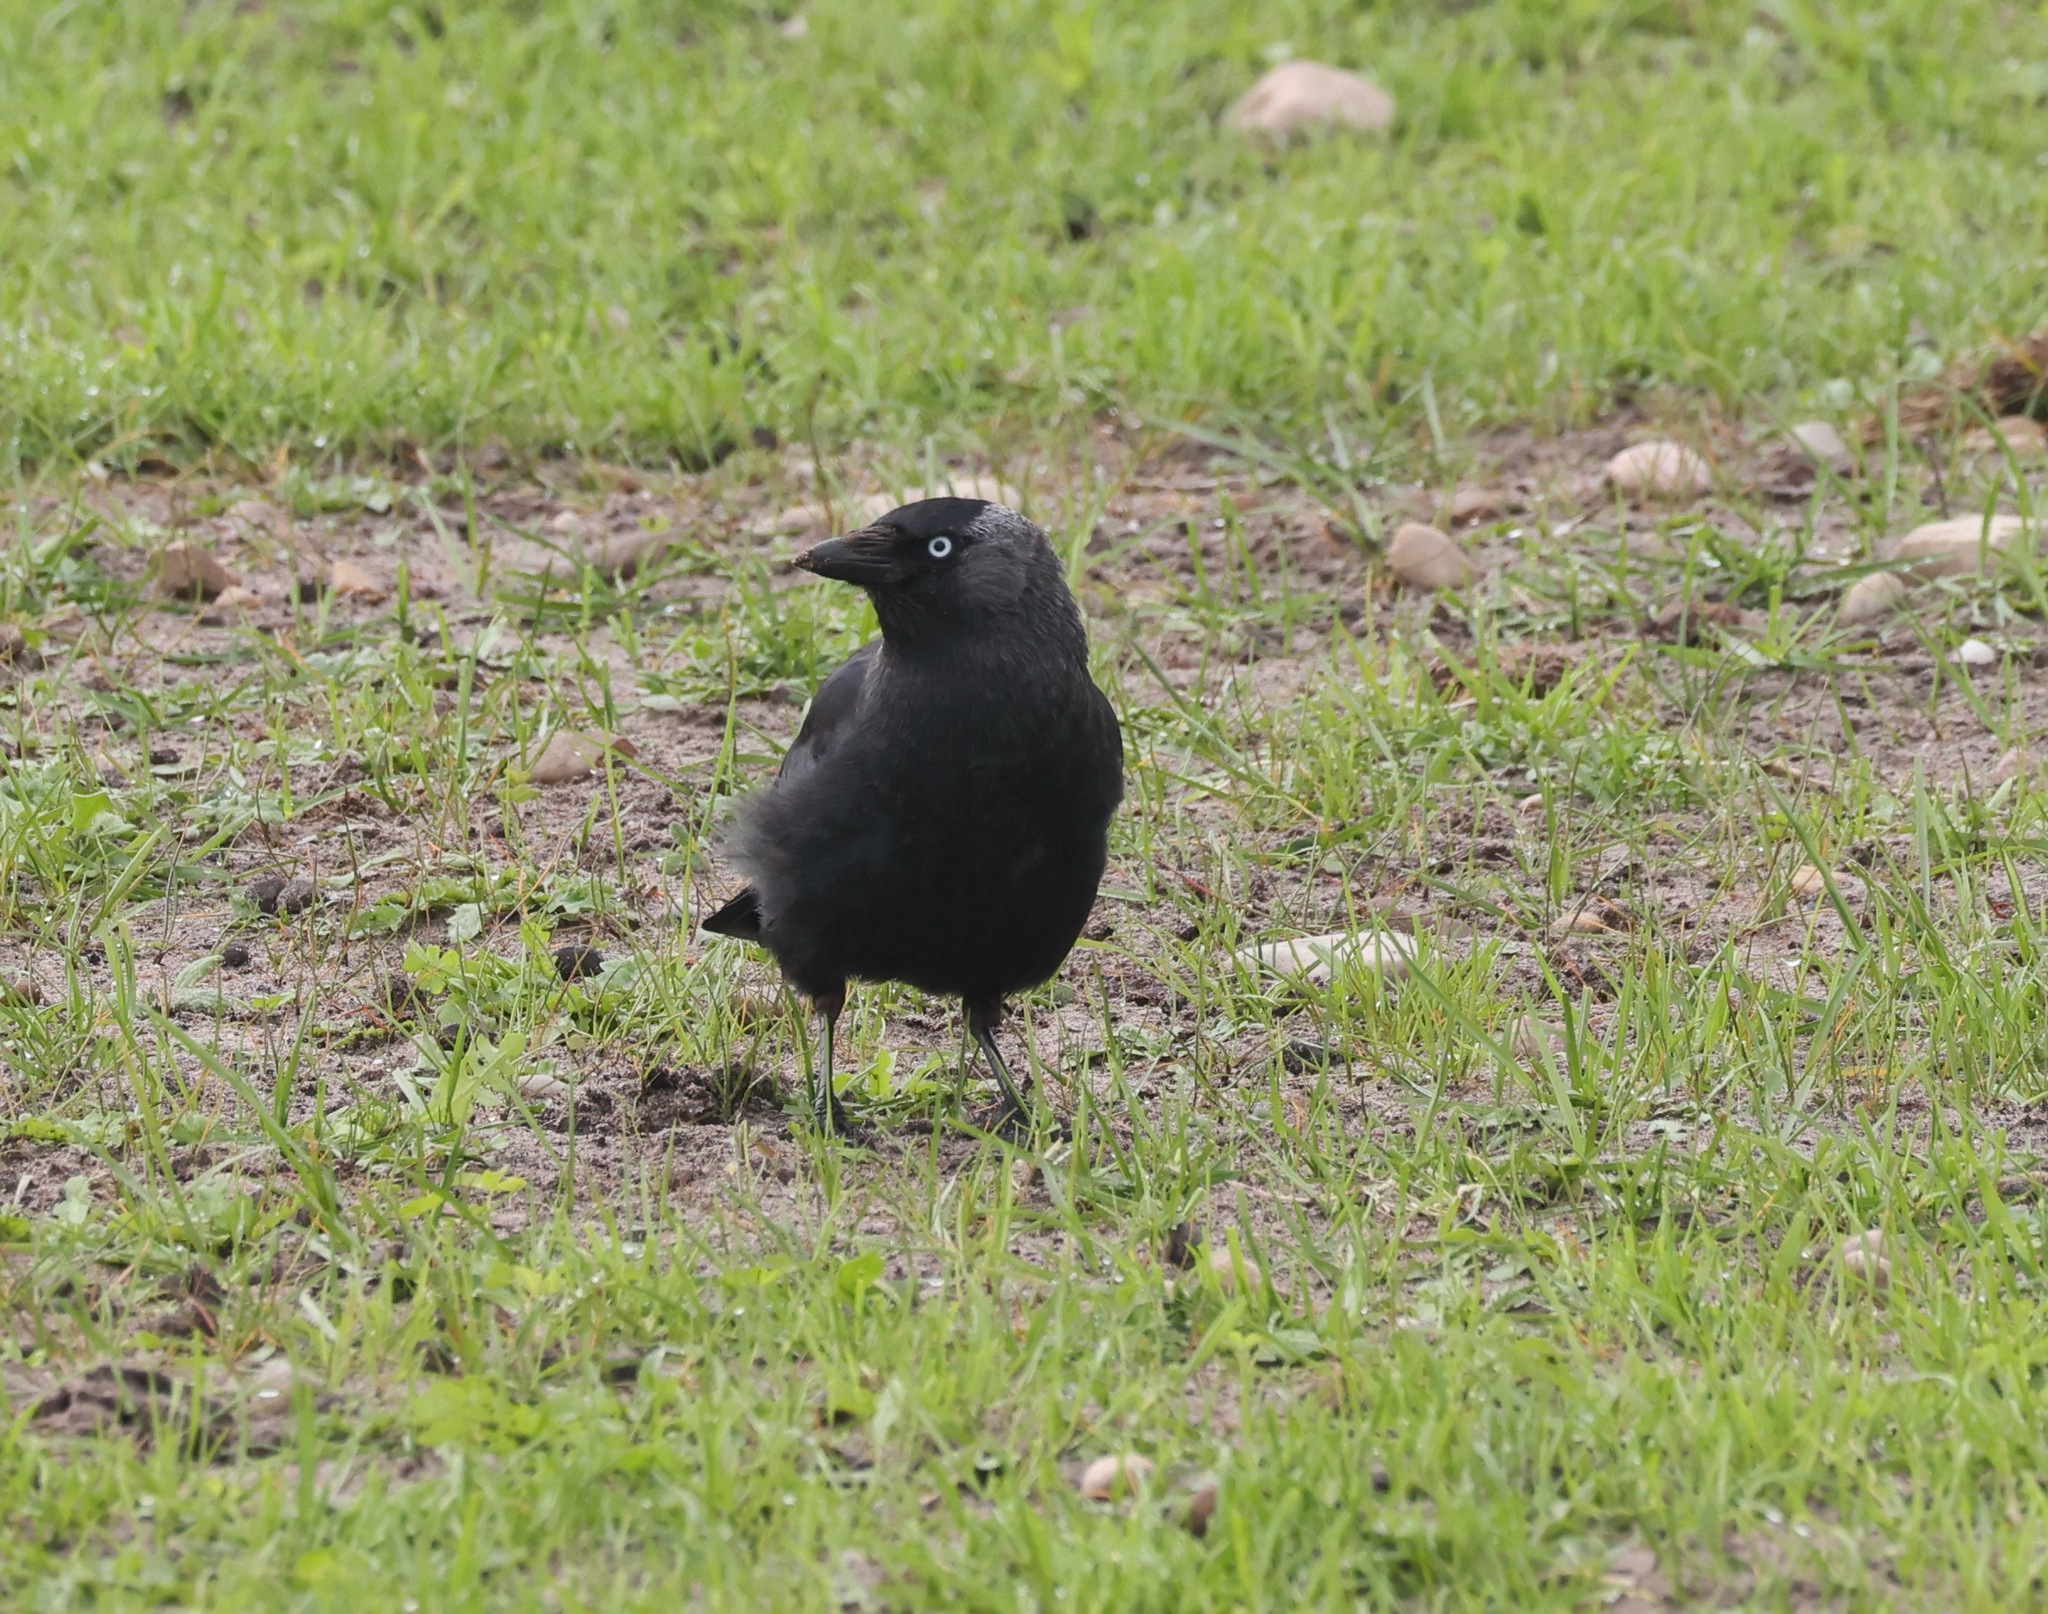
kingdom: Animalia
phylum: Chordata
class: Aves
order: Passeriformes
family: Corvidae
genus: Coloeus
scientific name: Coloeus monedula
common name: Western jackdaw
